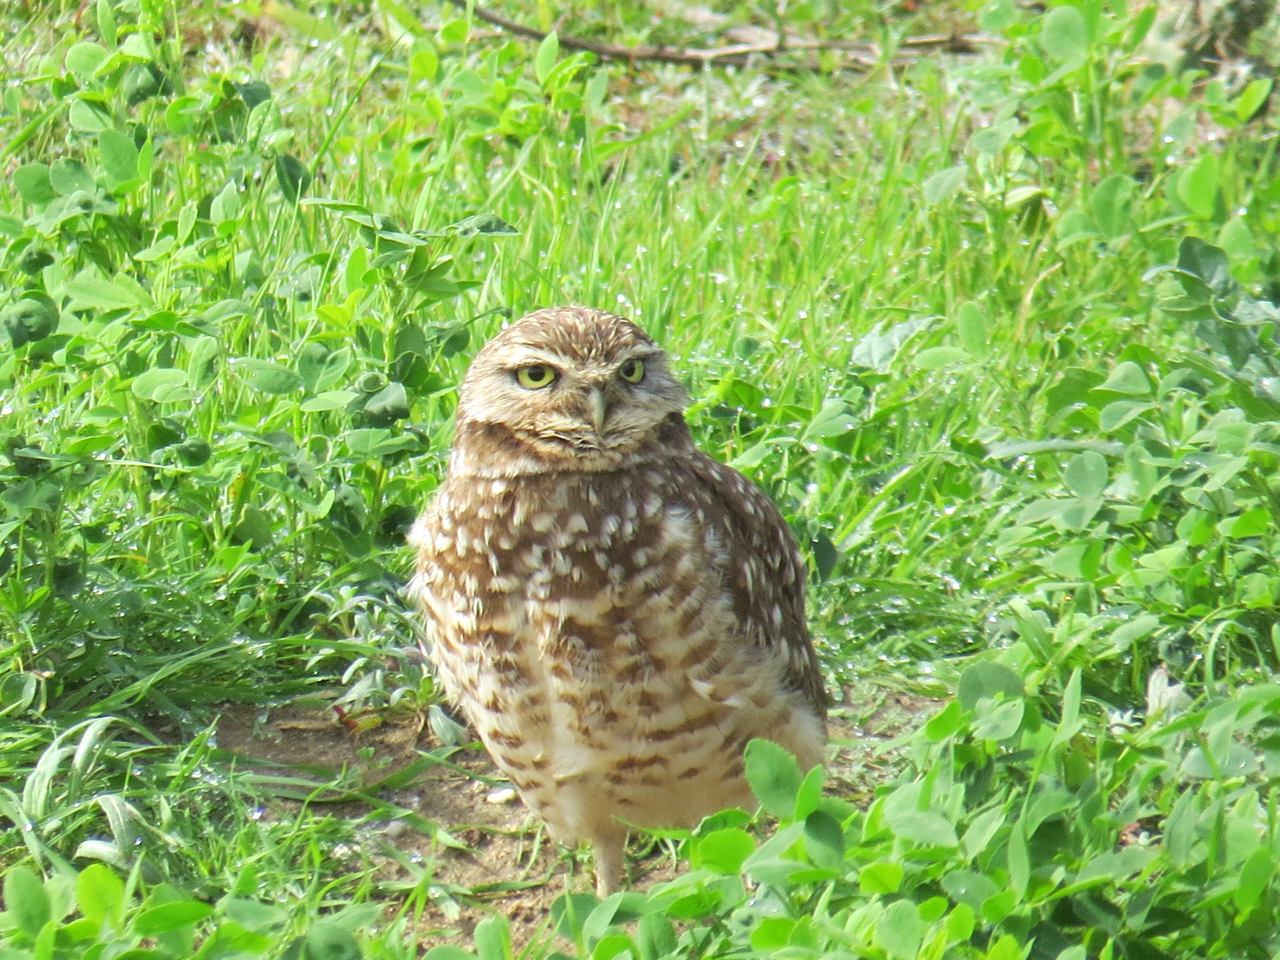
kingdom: Animalia
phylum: Chordata
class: Aves
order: Strigiformes
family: Strigidae
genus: Athene
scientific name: Athene cunicularia
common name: Burrowing owl
